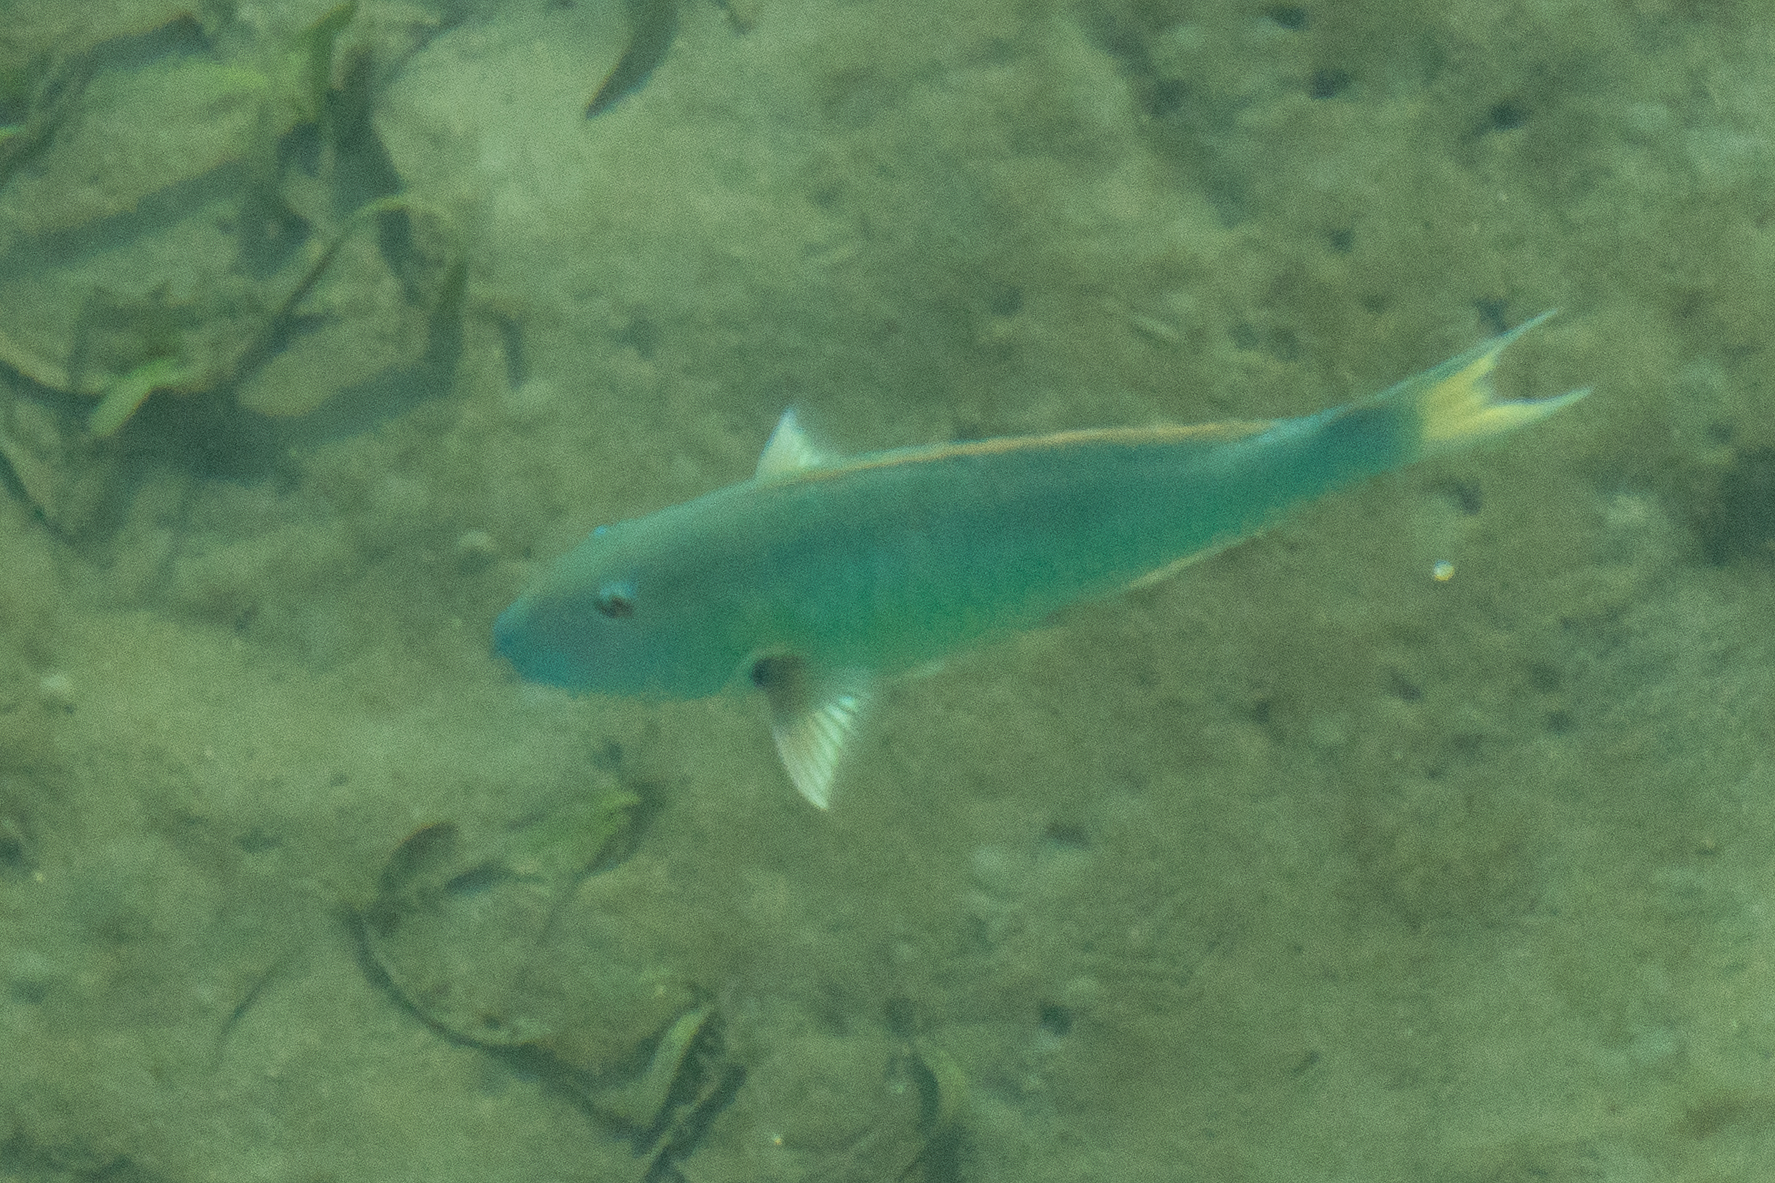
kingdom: Animalia
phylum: Chordata
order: Perciformes
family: Scaridae
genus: Sparisoma
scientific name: Sparisoma rubripinne
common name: Redfin parrotfish
